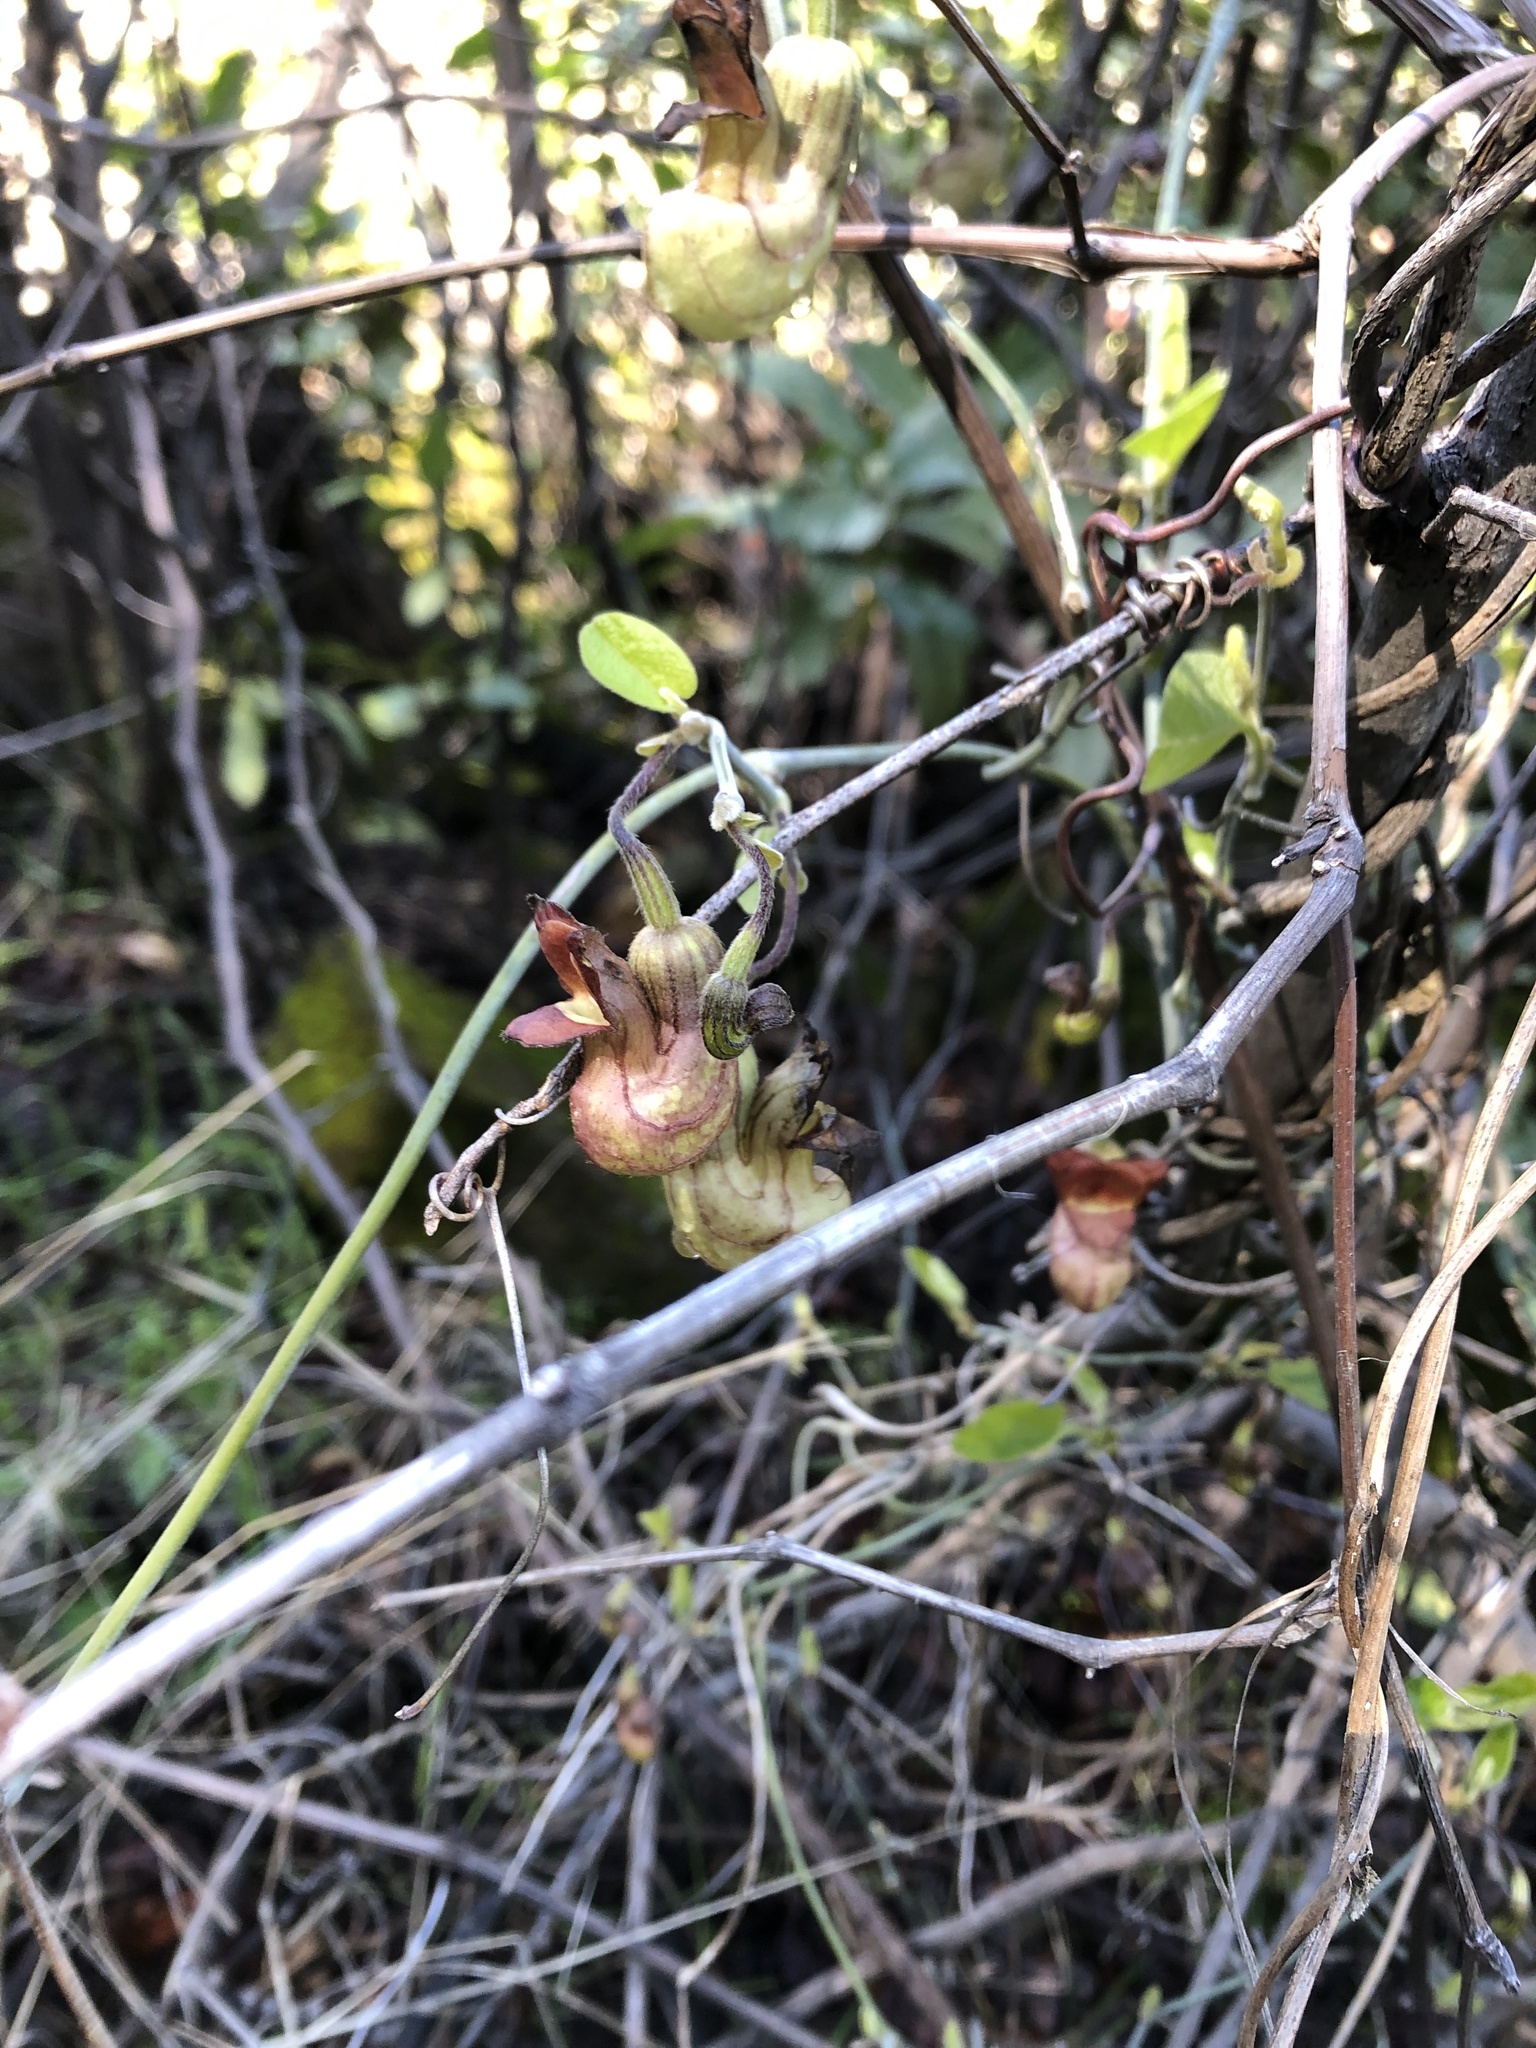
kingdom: Plantae
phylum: Tracheophyta
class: Magnoliopsida
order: Piperales
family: Aristolochiaceae
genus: Isotrema
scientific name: Isotrema californicum
